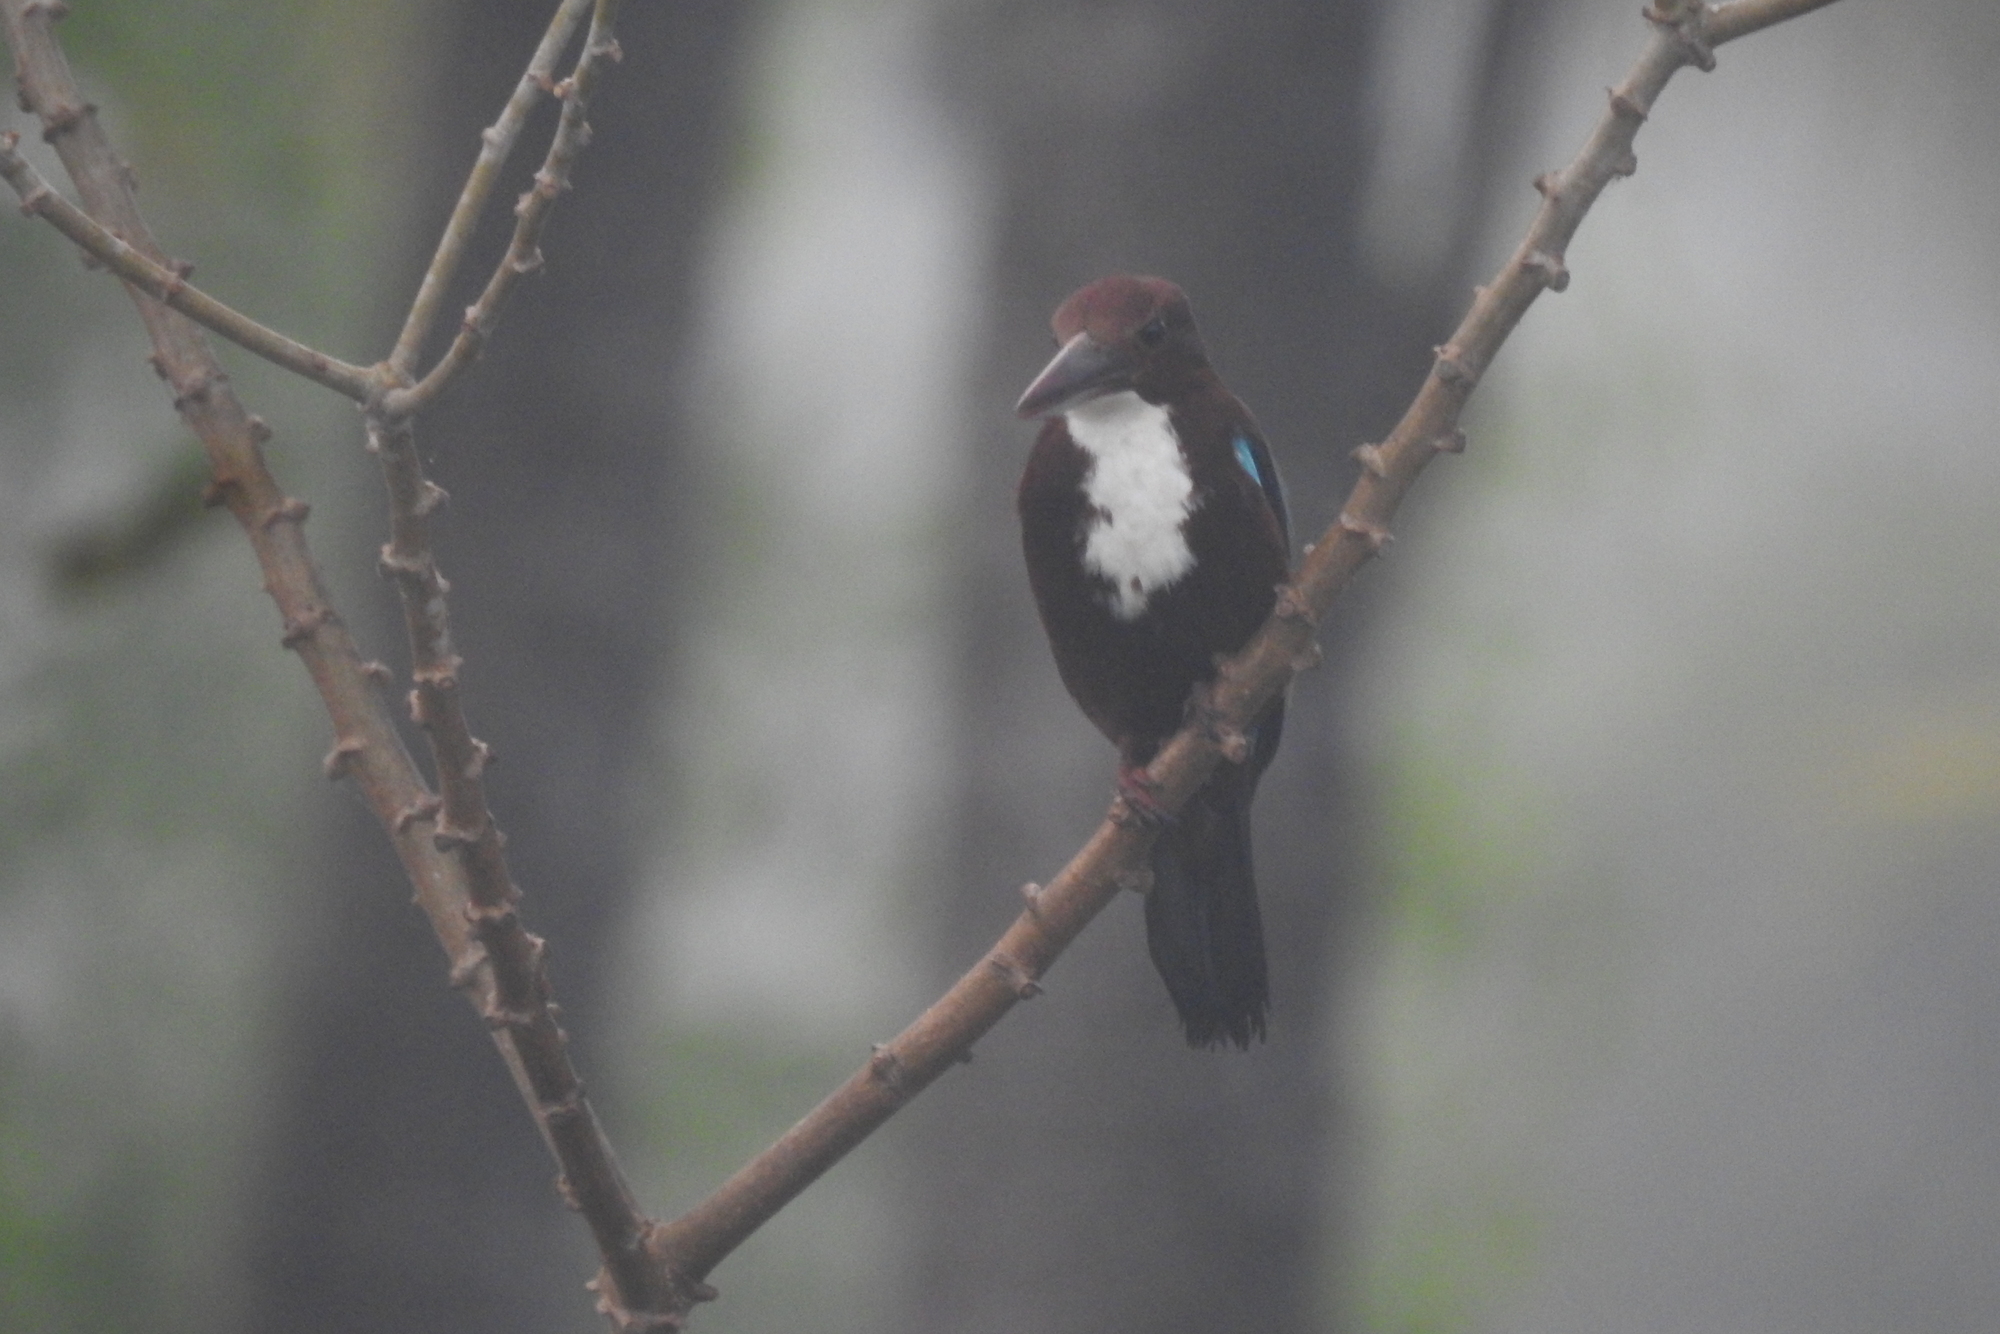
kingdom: Animalia
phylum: Chordata
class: Aves
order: Coraciiformes
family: Alcedinidae
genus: Halcyon
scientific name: Halcyon smyrnensis
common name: White-throated kingfisher
